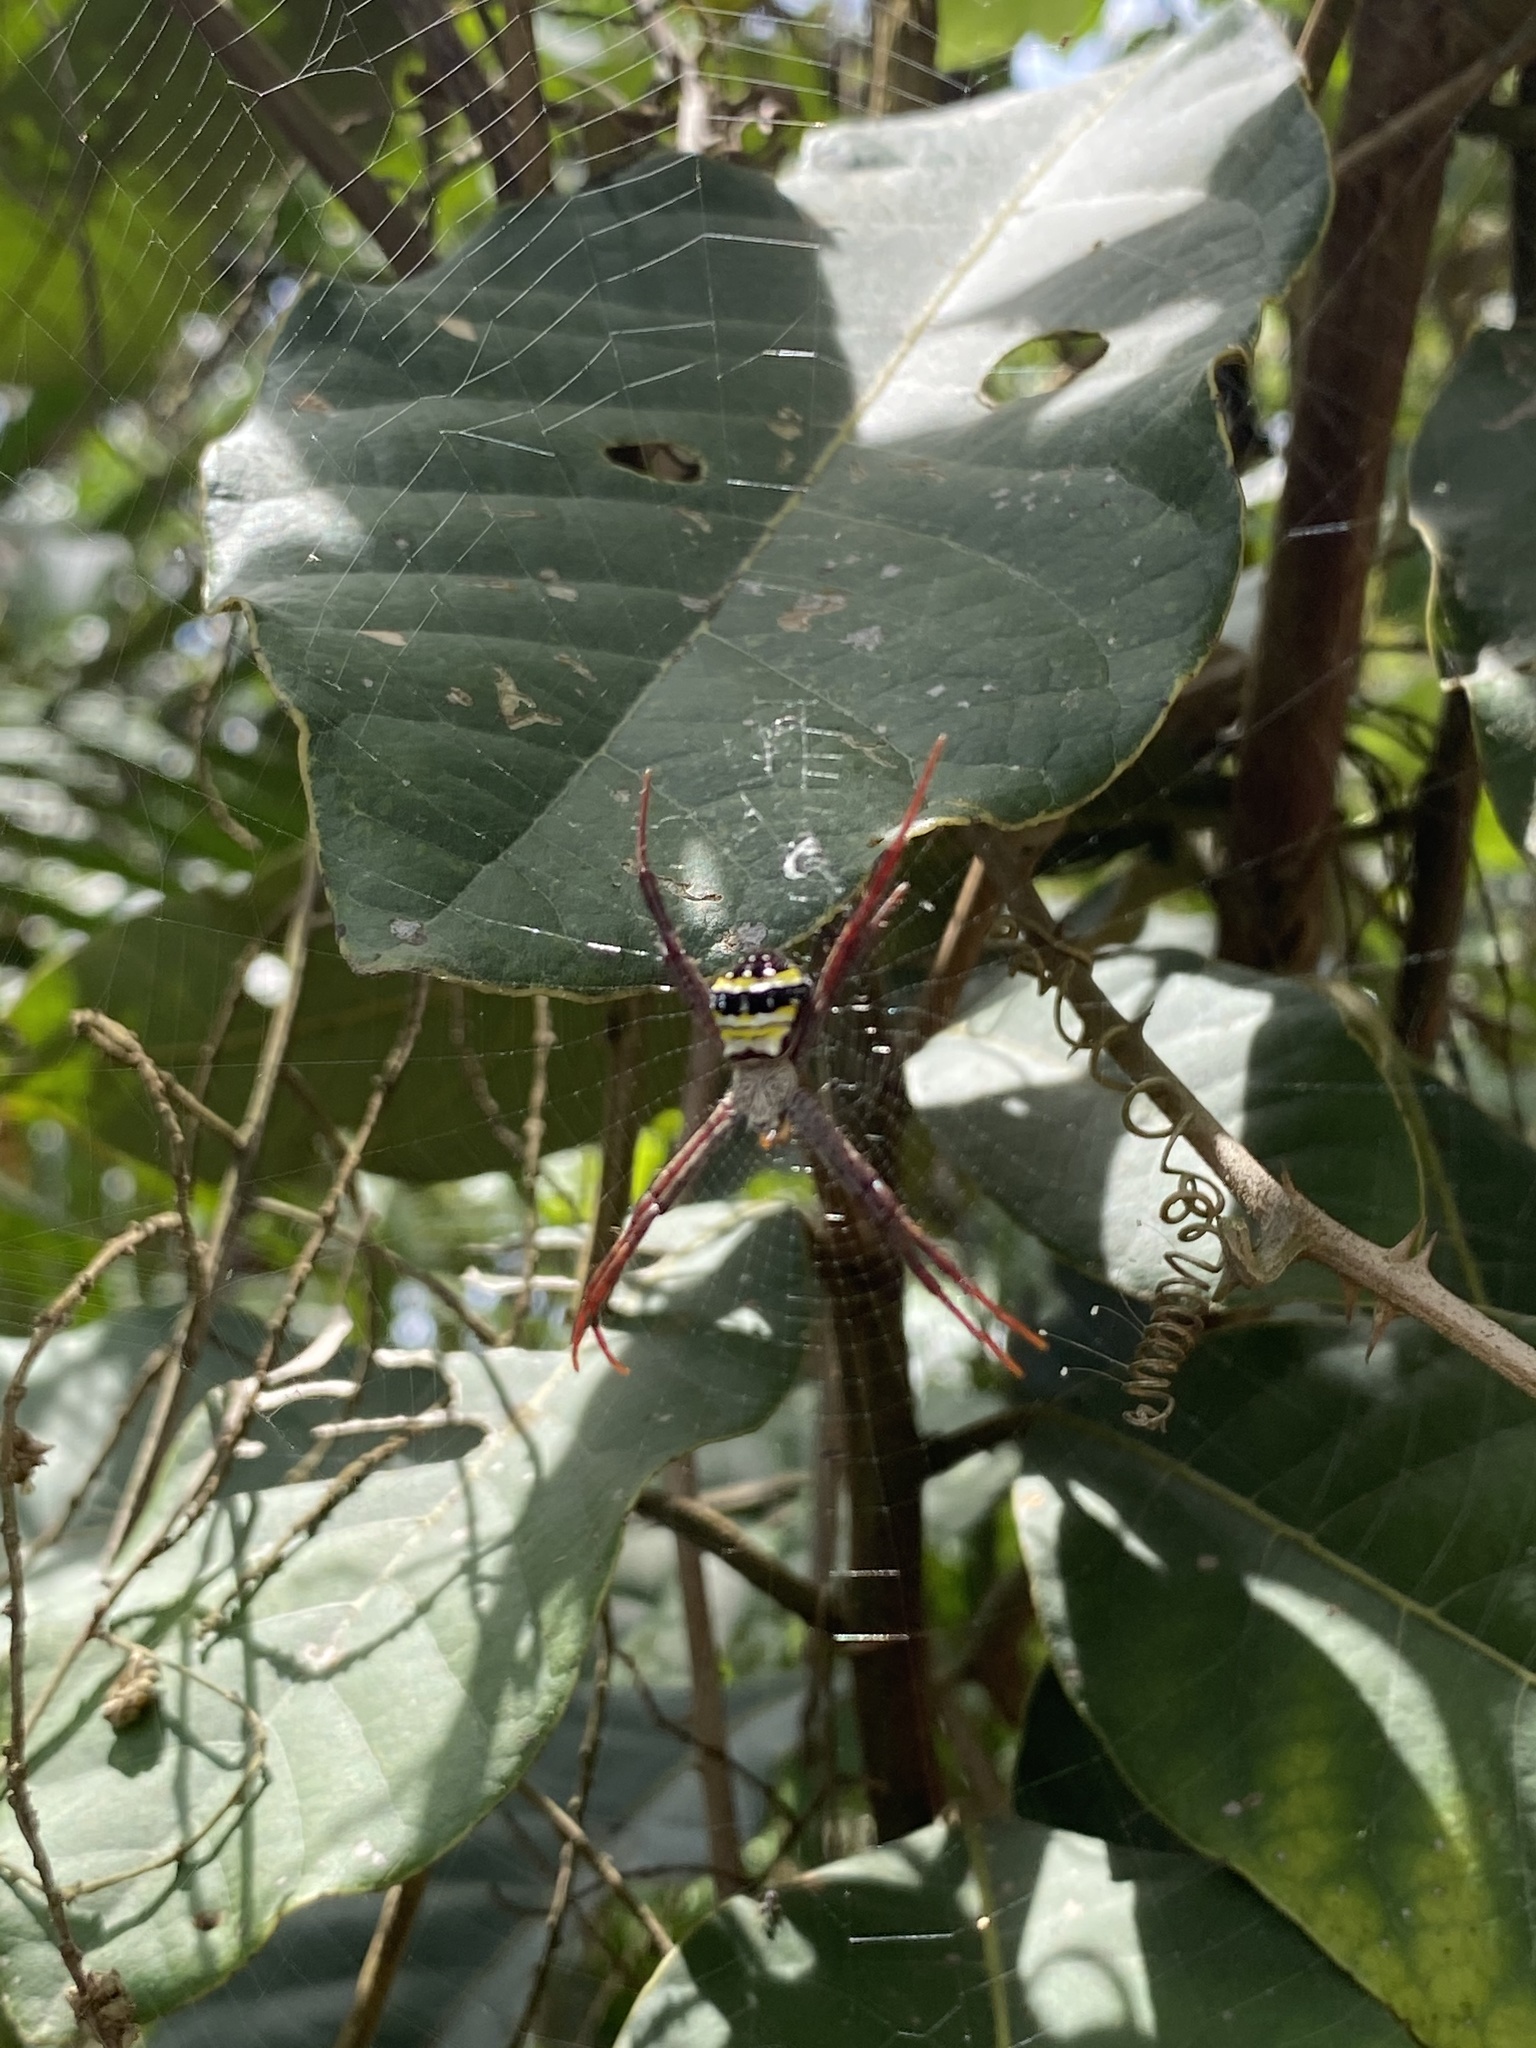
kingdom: Animalia
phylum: Arthropoda
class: Arachnida
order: Araneae
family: Araneidae
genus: Argiope
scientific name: Argiope aetheroides
